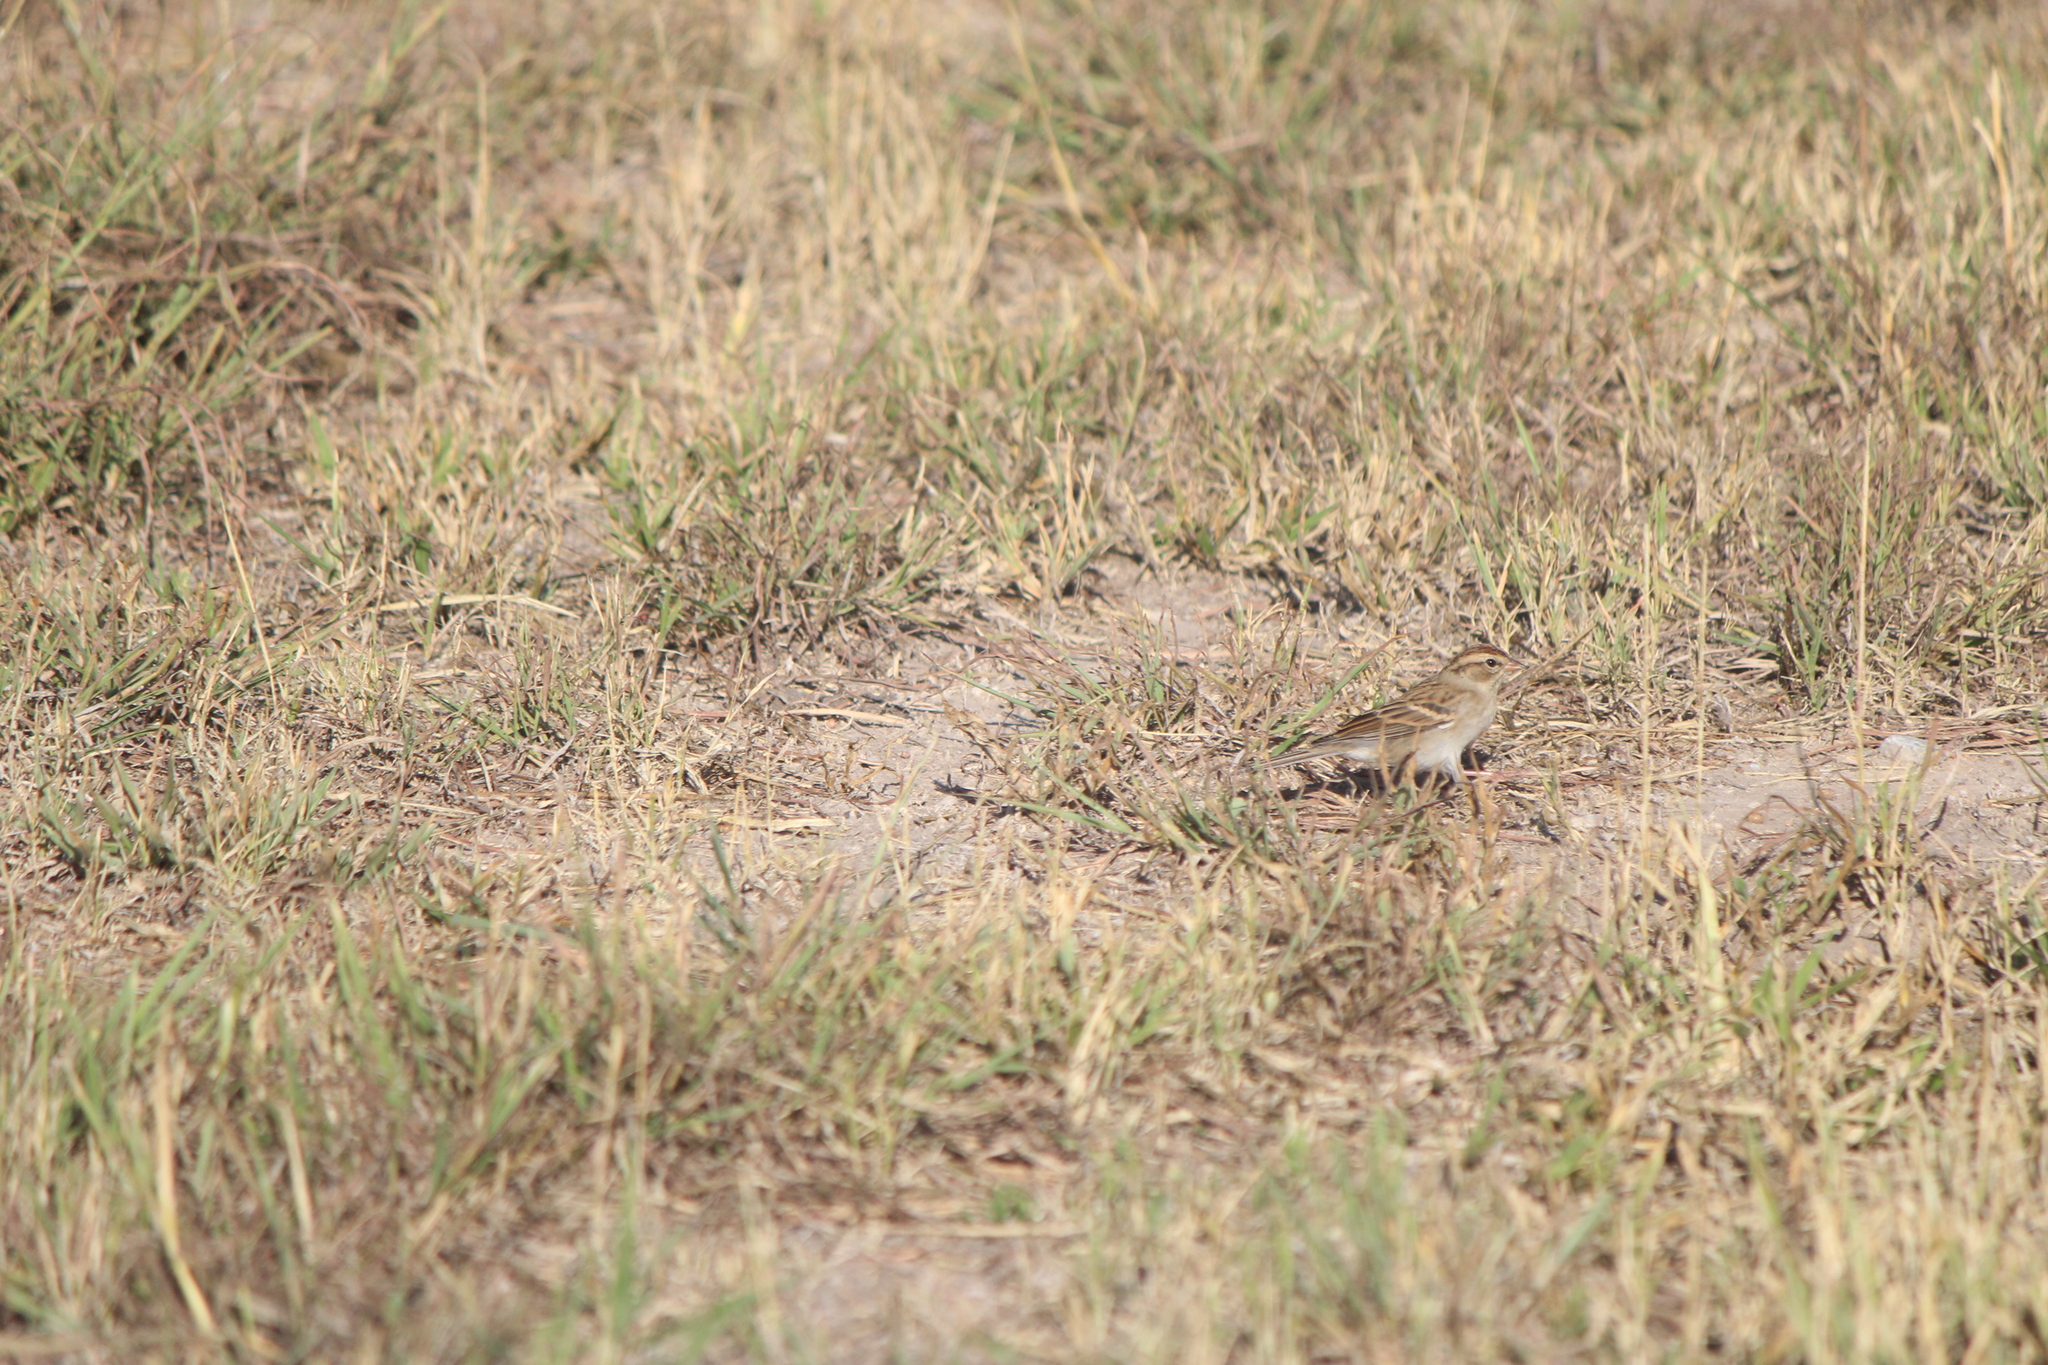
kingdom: Animalia
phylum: Chordata
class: Aves
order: Passeriformes
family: Passerellidae
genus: Spizella
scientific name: Spizella passerina
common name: Chipping sparrow
